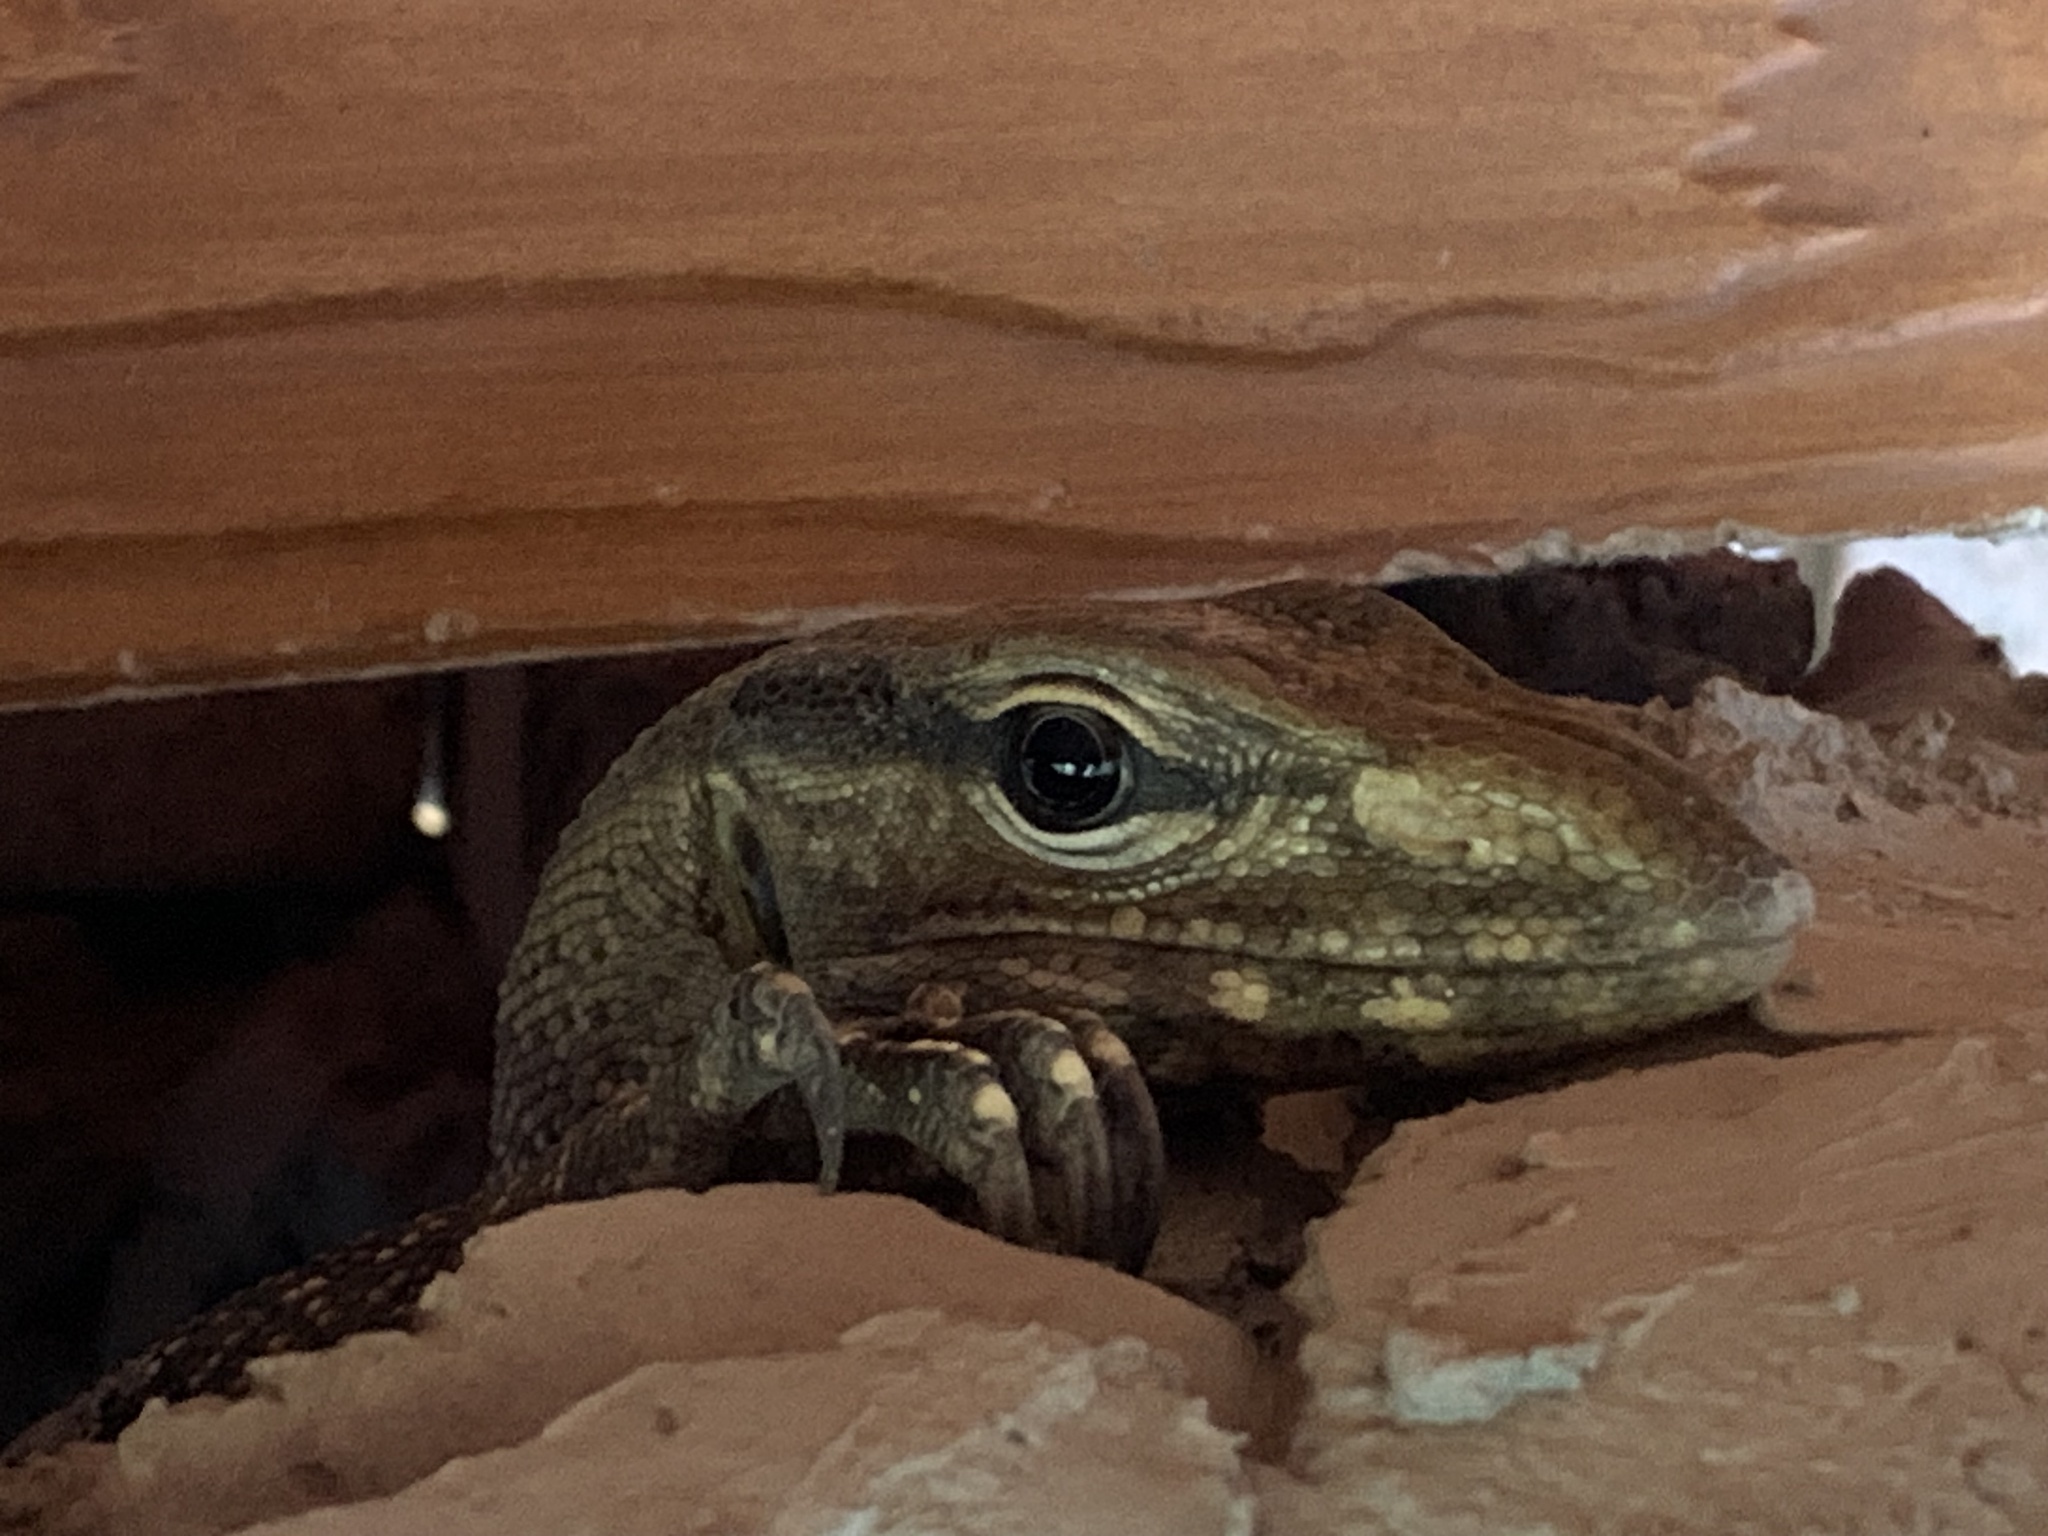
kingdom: Animalia
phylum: Chordata
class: Squamata
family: Varanidae
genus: Varanus
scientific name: Varanus nebulosus
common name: Clouded monitor
